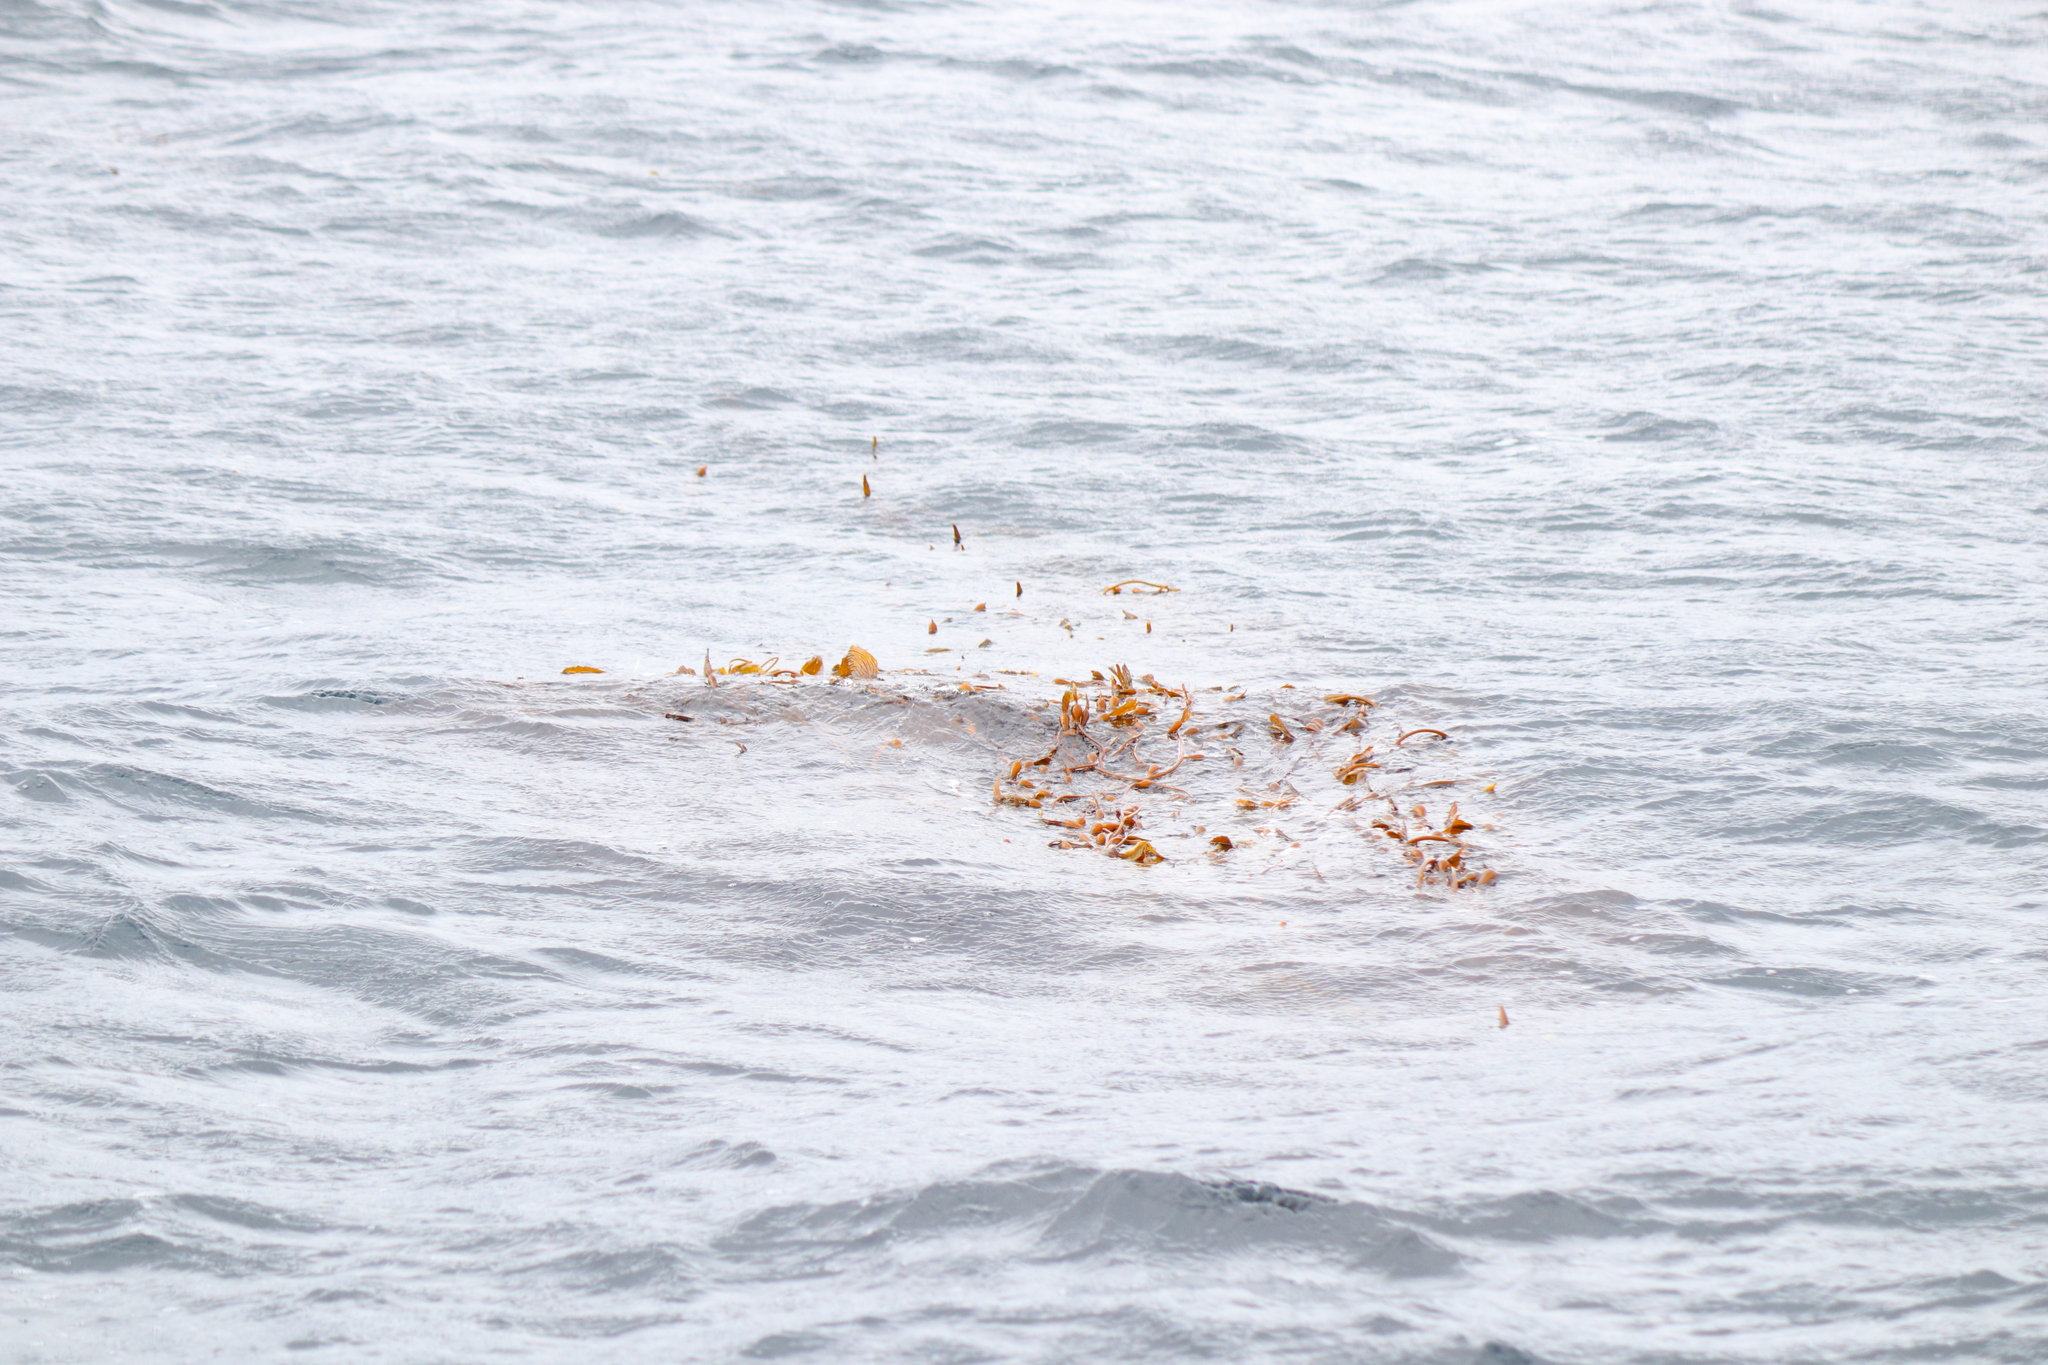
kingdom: Chromista
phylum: Ochrophyta
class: Phaeophyceae
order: Laminariales
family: Laminariaceae
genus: Macrocystis
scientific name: Macrocystis pyrifera
